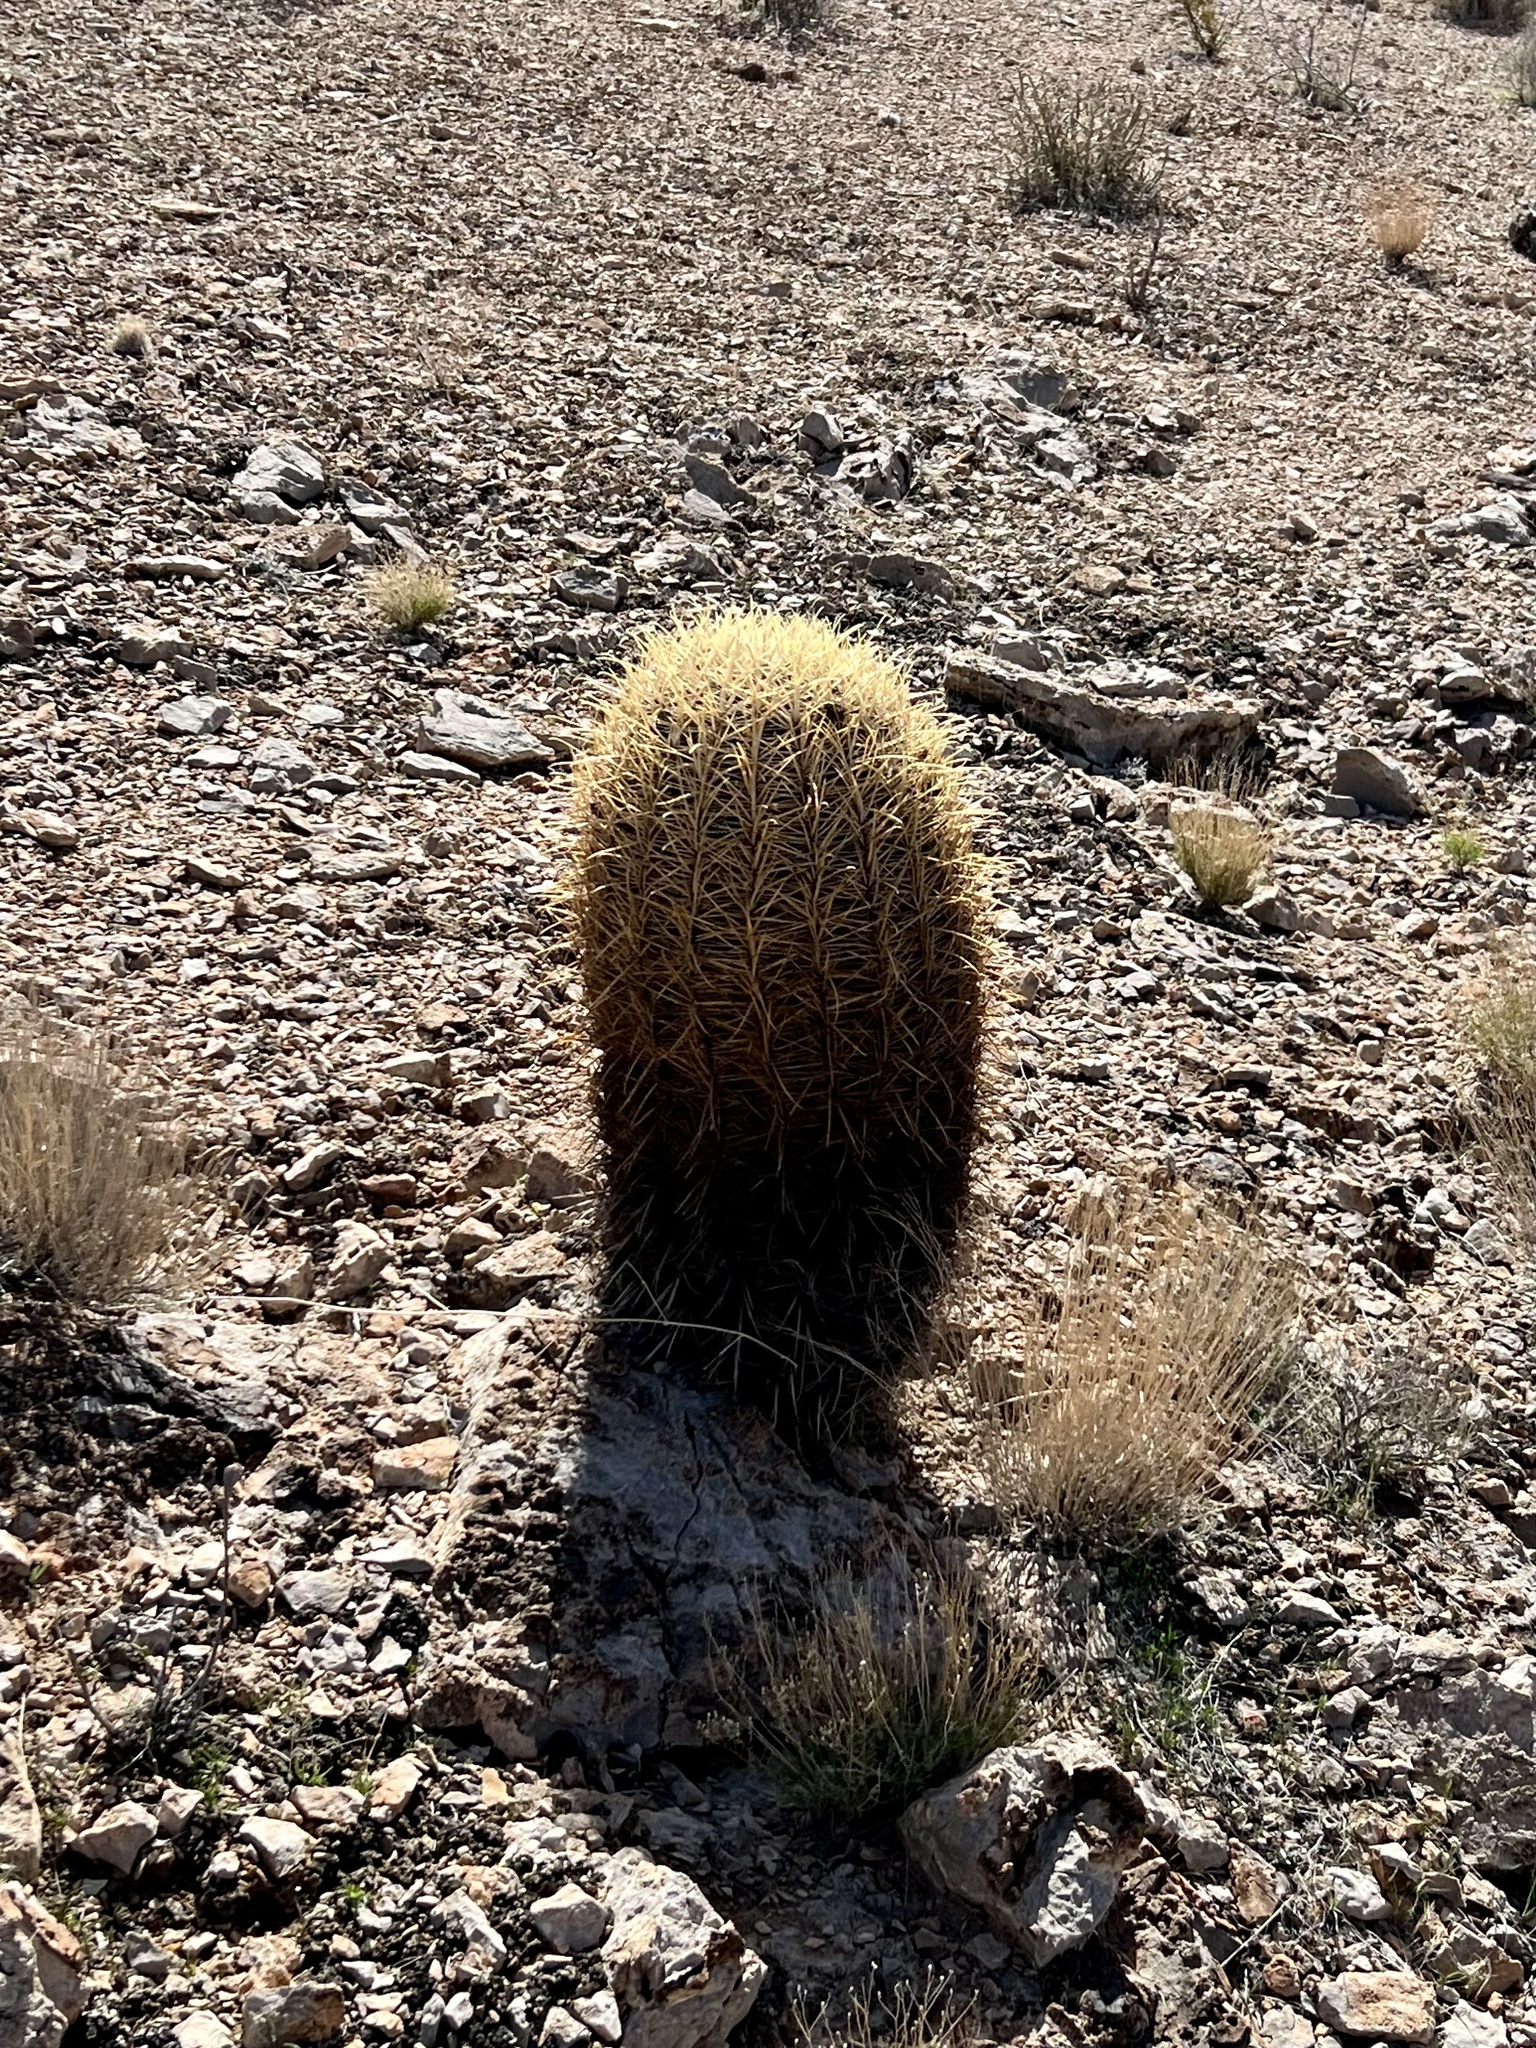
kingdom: Plantae
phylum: Tracheophyta
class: Magnoliopsida
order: Caryophyllales
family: Cactaceae
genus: Ferocactus
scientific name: Ferocactus cylindraceus
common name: California barrel cactus
